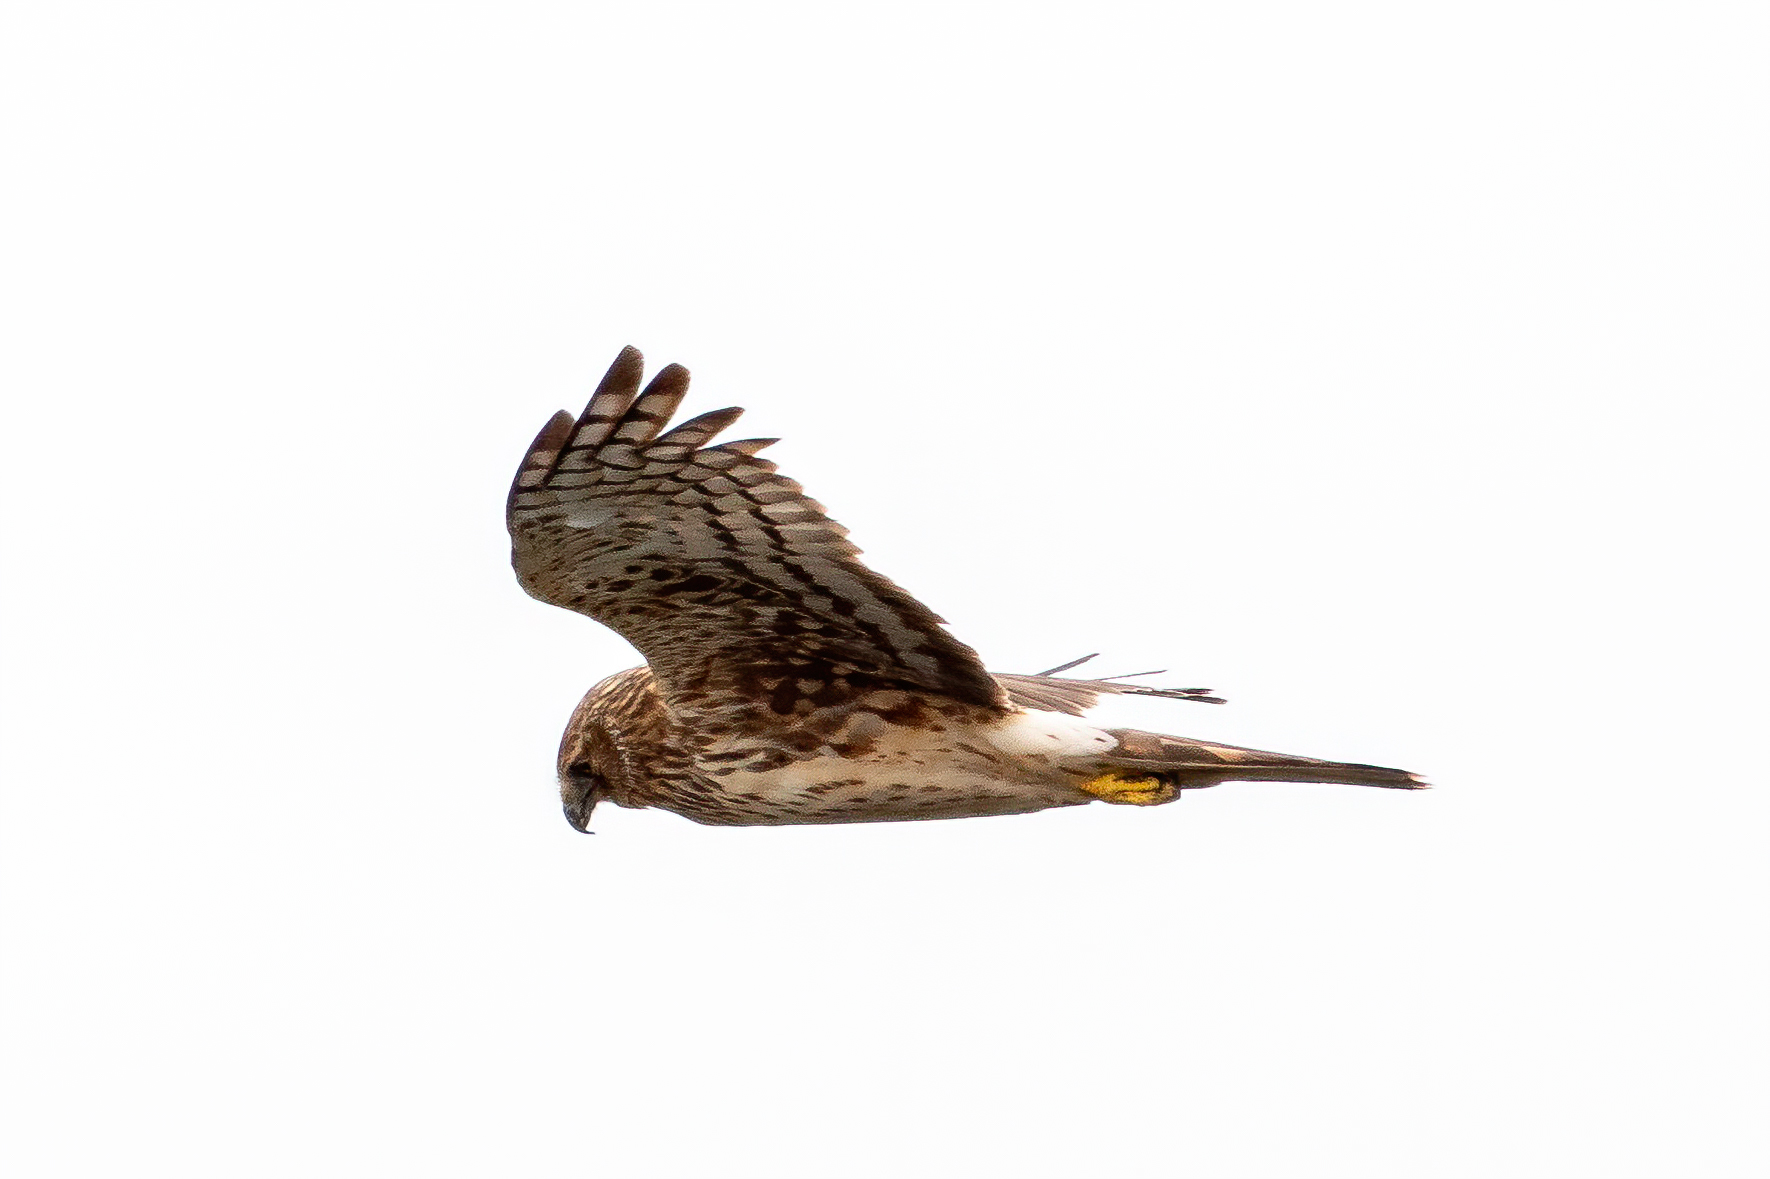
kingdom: Animalia
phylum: Chordata
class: Aves
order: Accipitriformes
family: Accipitridae
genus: Circus
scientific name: Circus cyaneus
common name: Hen harrier
